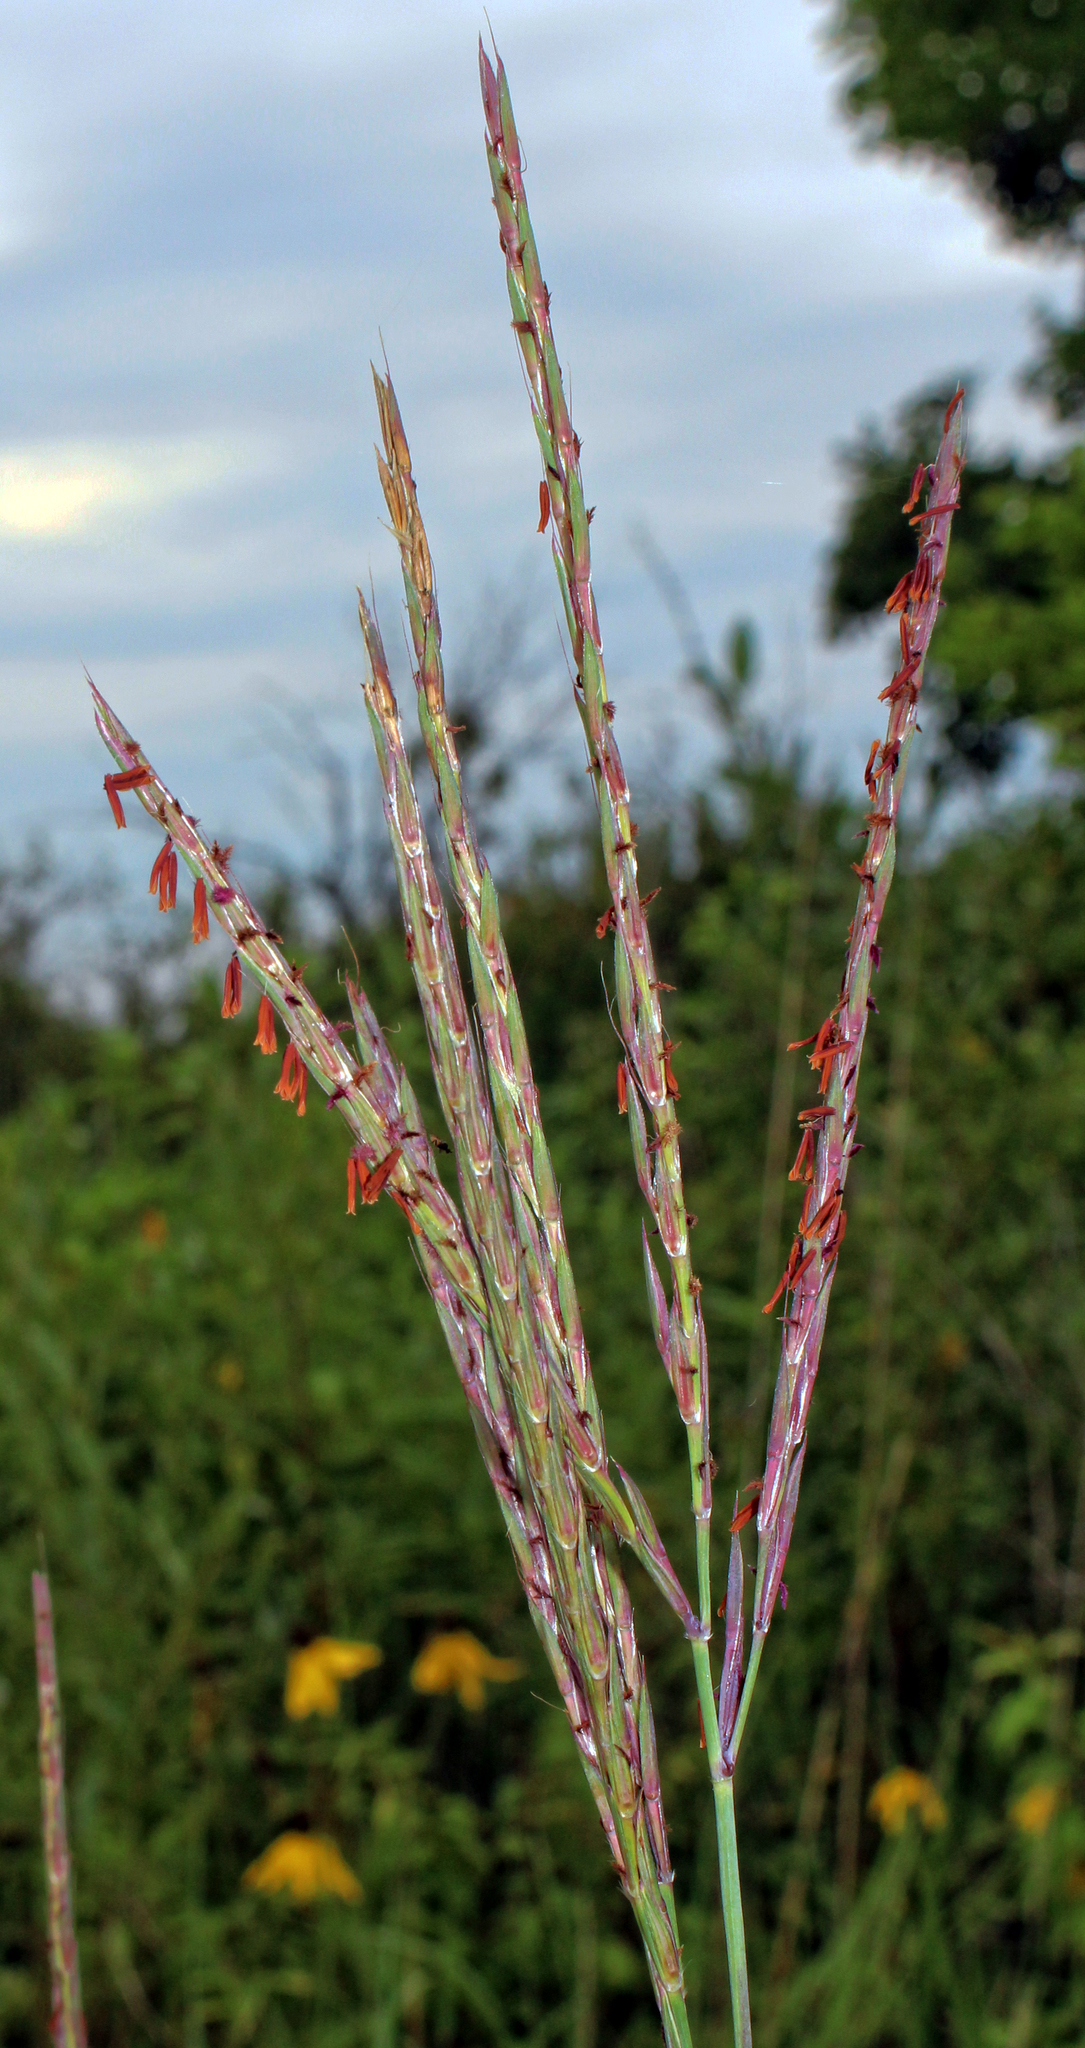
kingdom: Plantae
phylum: Tracheophyta
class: Liliopsida
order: Poales
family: Poaceae
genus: Andropogon
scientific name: Andropogon gerardi
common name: Big bluestem
